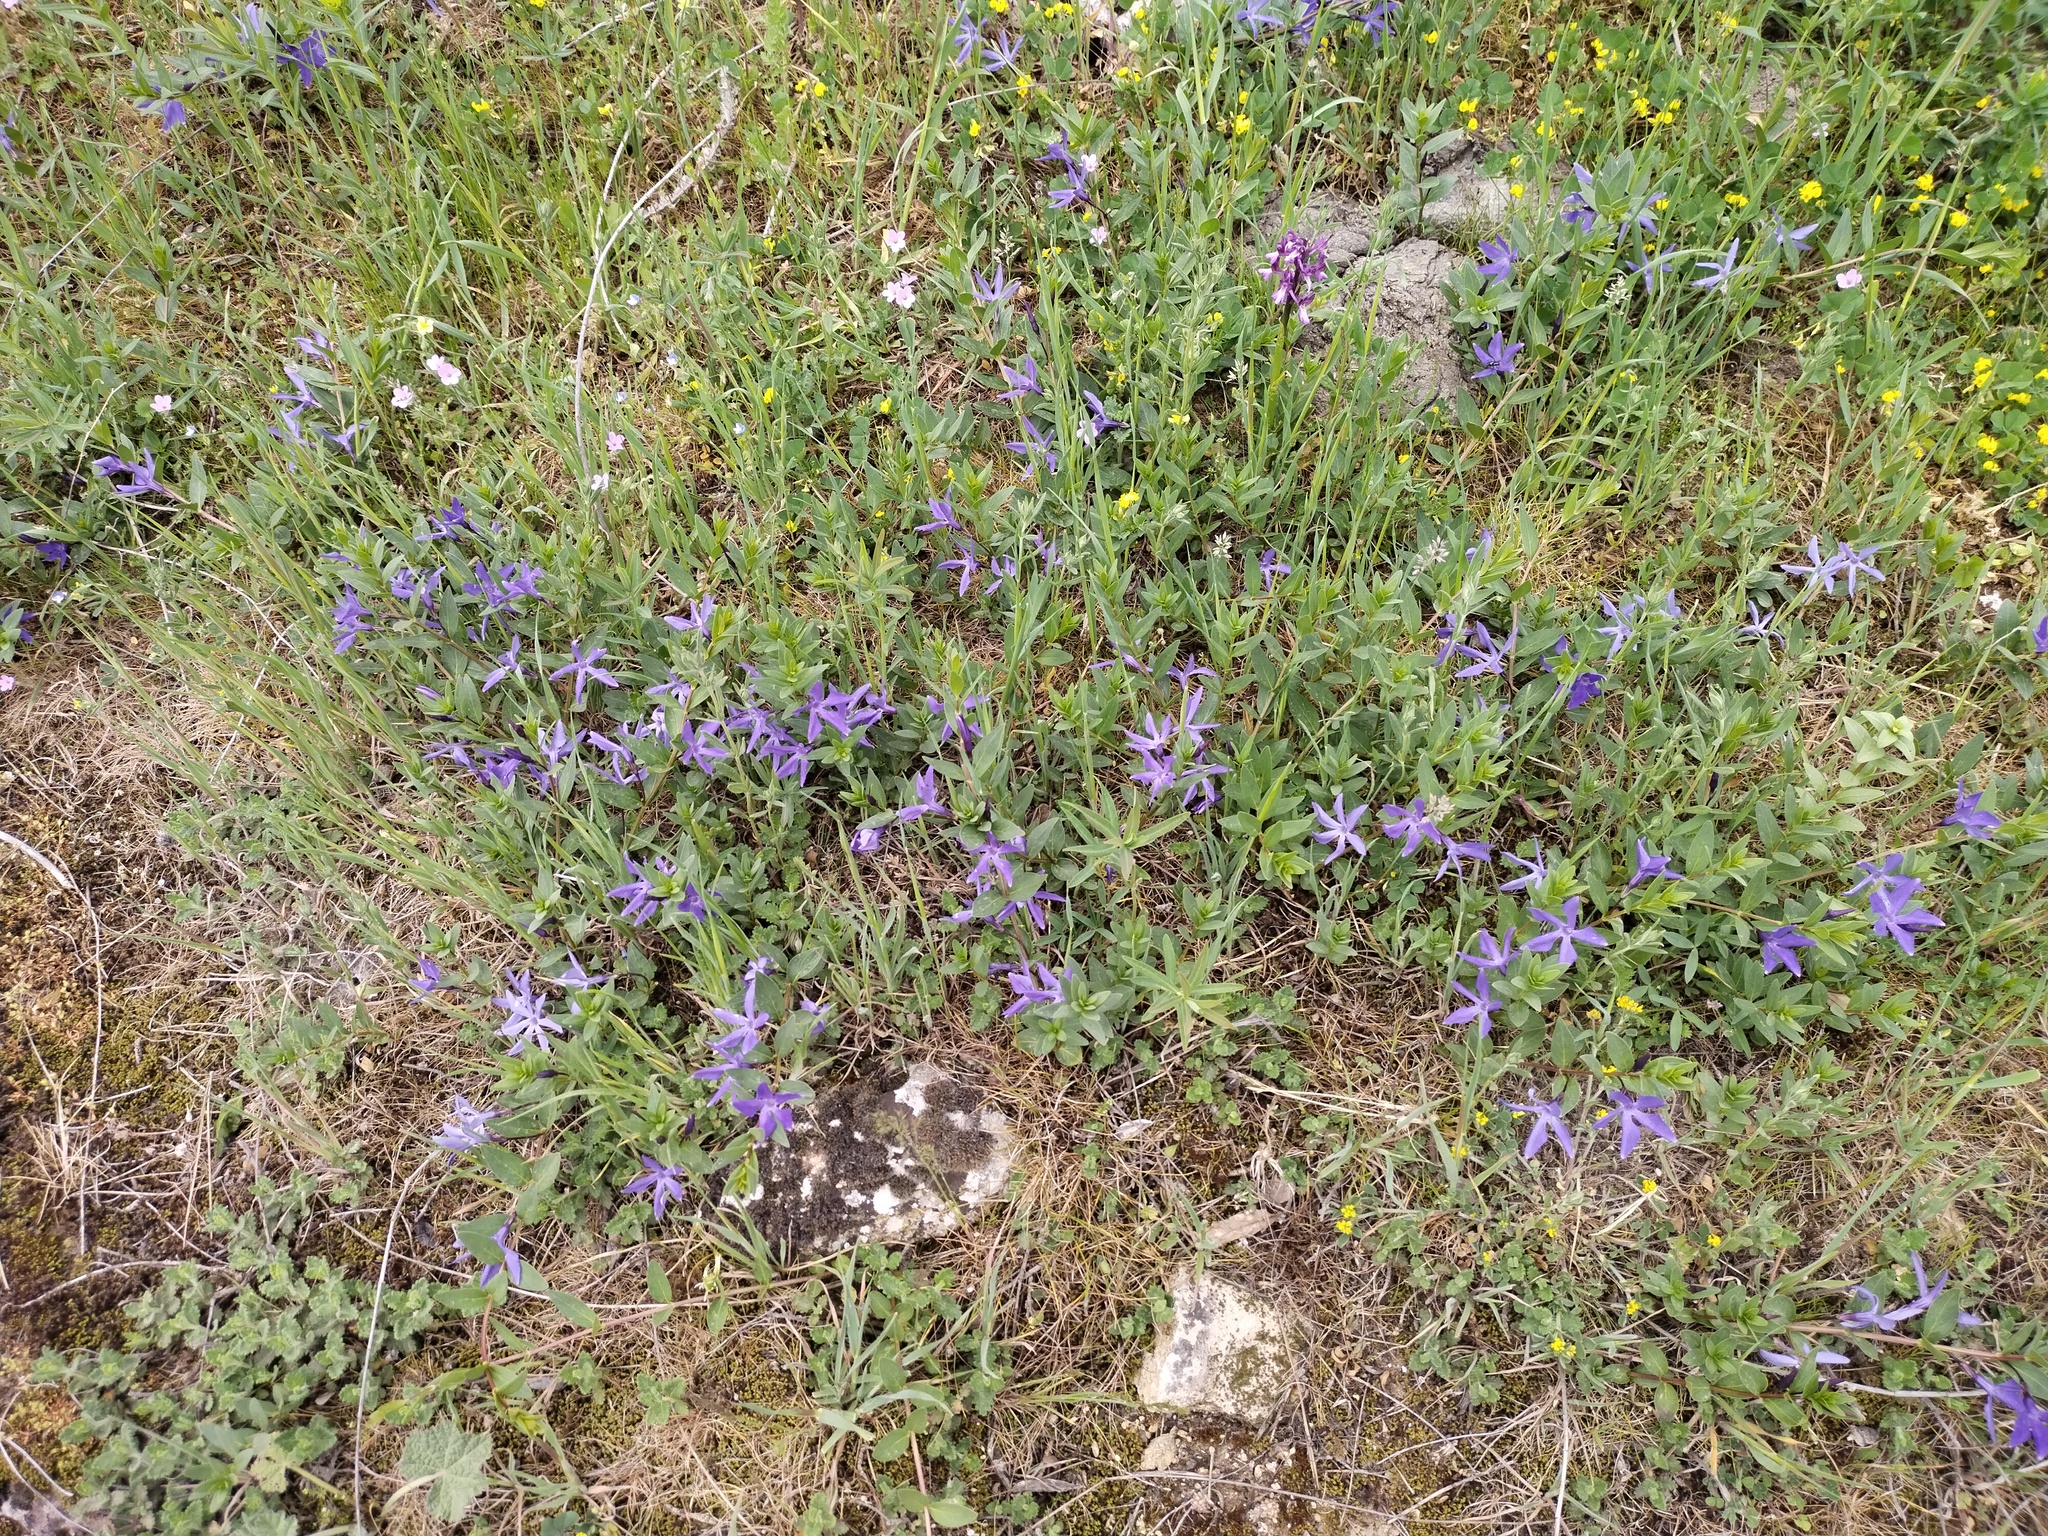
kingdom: Plantae
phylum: Tracheophyta
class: Magnoliopsida
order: Gentianales
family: Apocynaceae
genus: Vinca
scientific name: Vinca herbacea
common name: Herbaceous periwinkle
